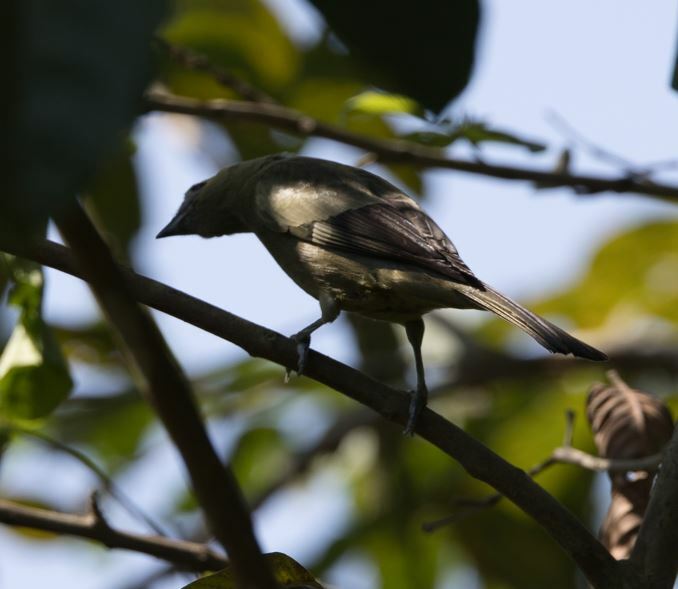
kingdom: Animalia
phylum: Chordata
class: Aves
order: Passeriformes
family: Thraupidae
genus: Thraupis
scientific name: Thraupis palmarum
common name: Palm tanager
